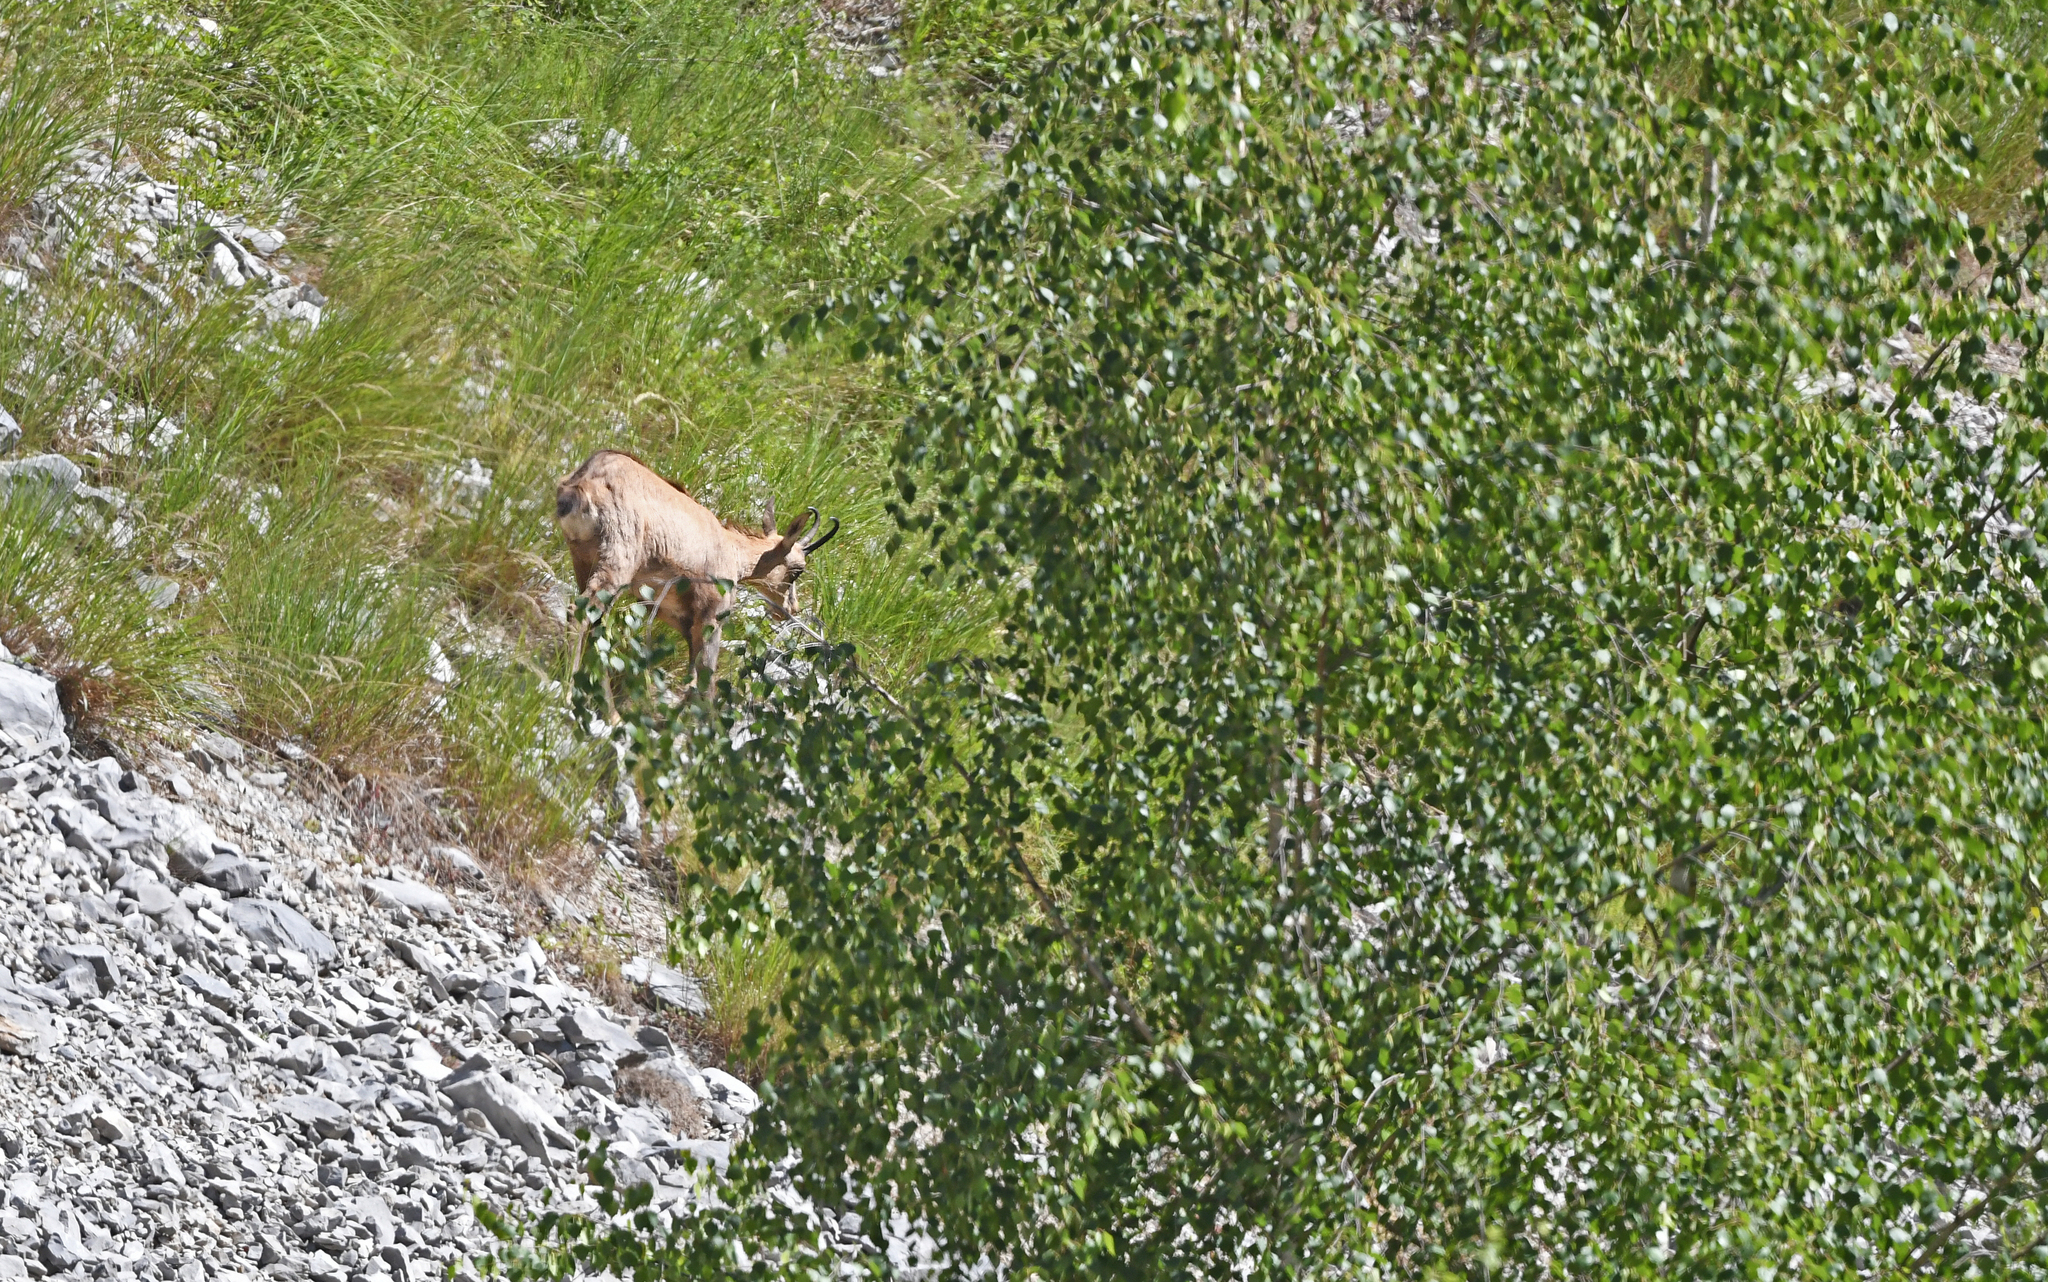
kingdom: Animalia
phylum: Chordata
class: Mammalia
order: Artiodactyla
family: Bovidae
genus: Rupicapra
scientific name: Rupicapra rupicapra
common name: Chamois
